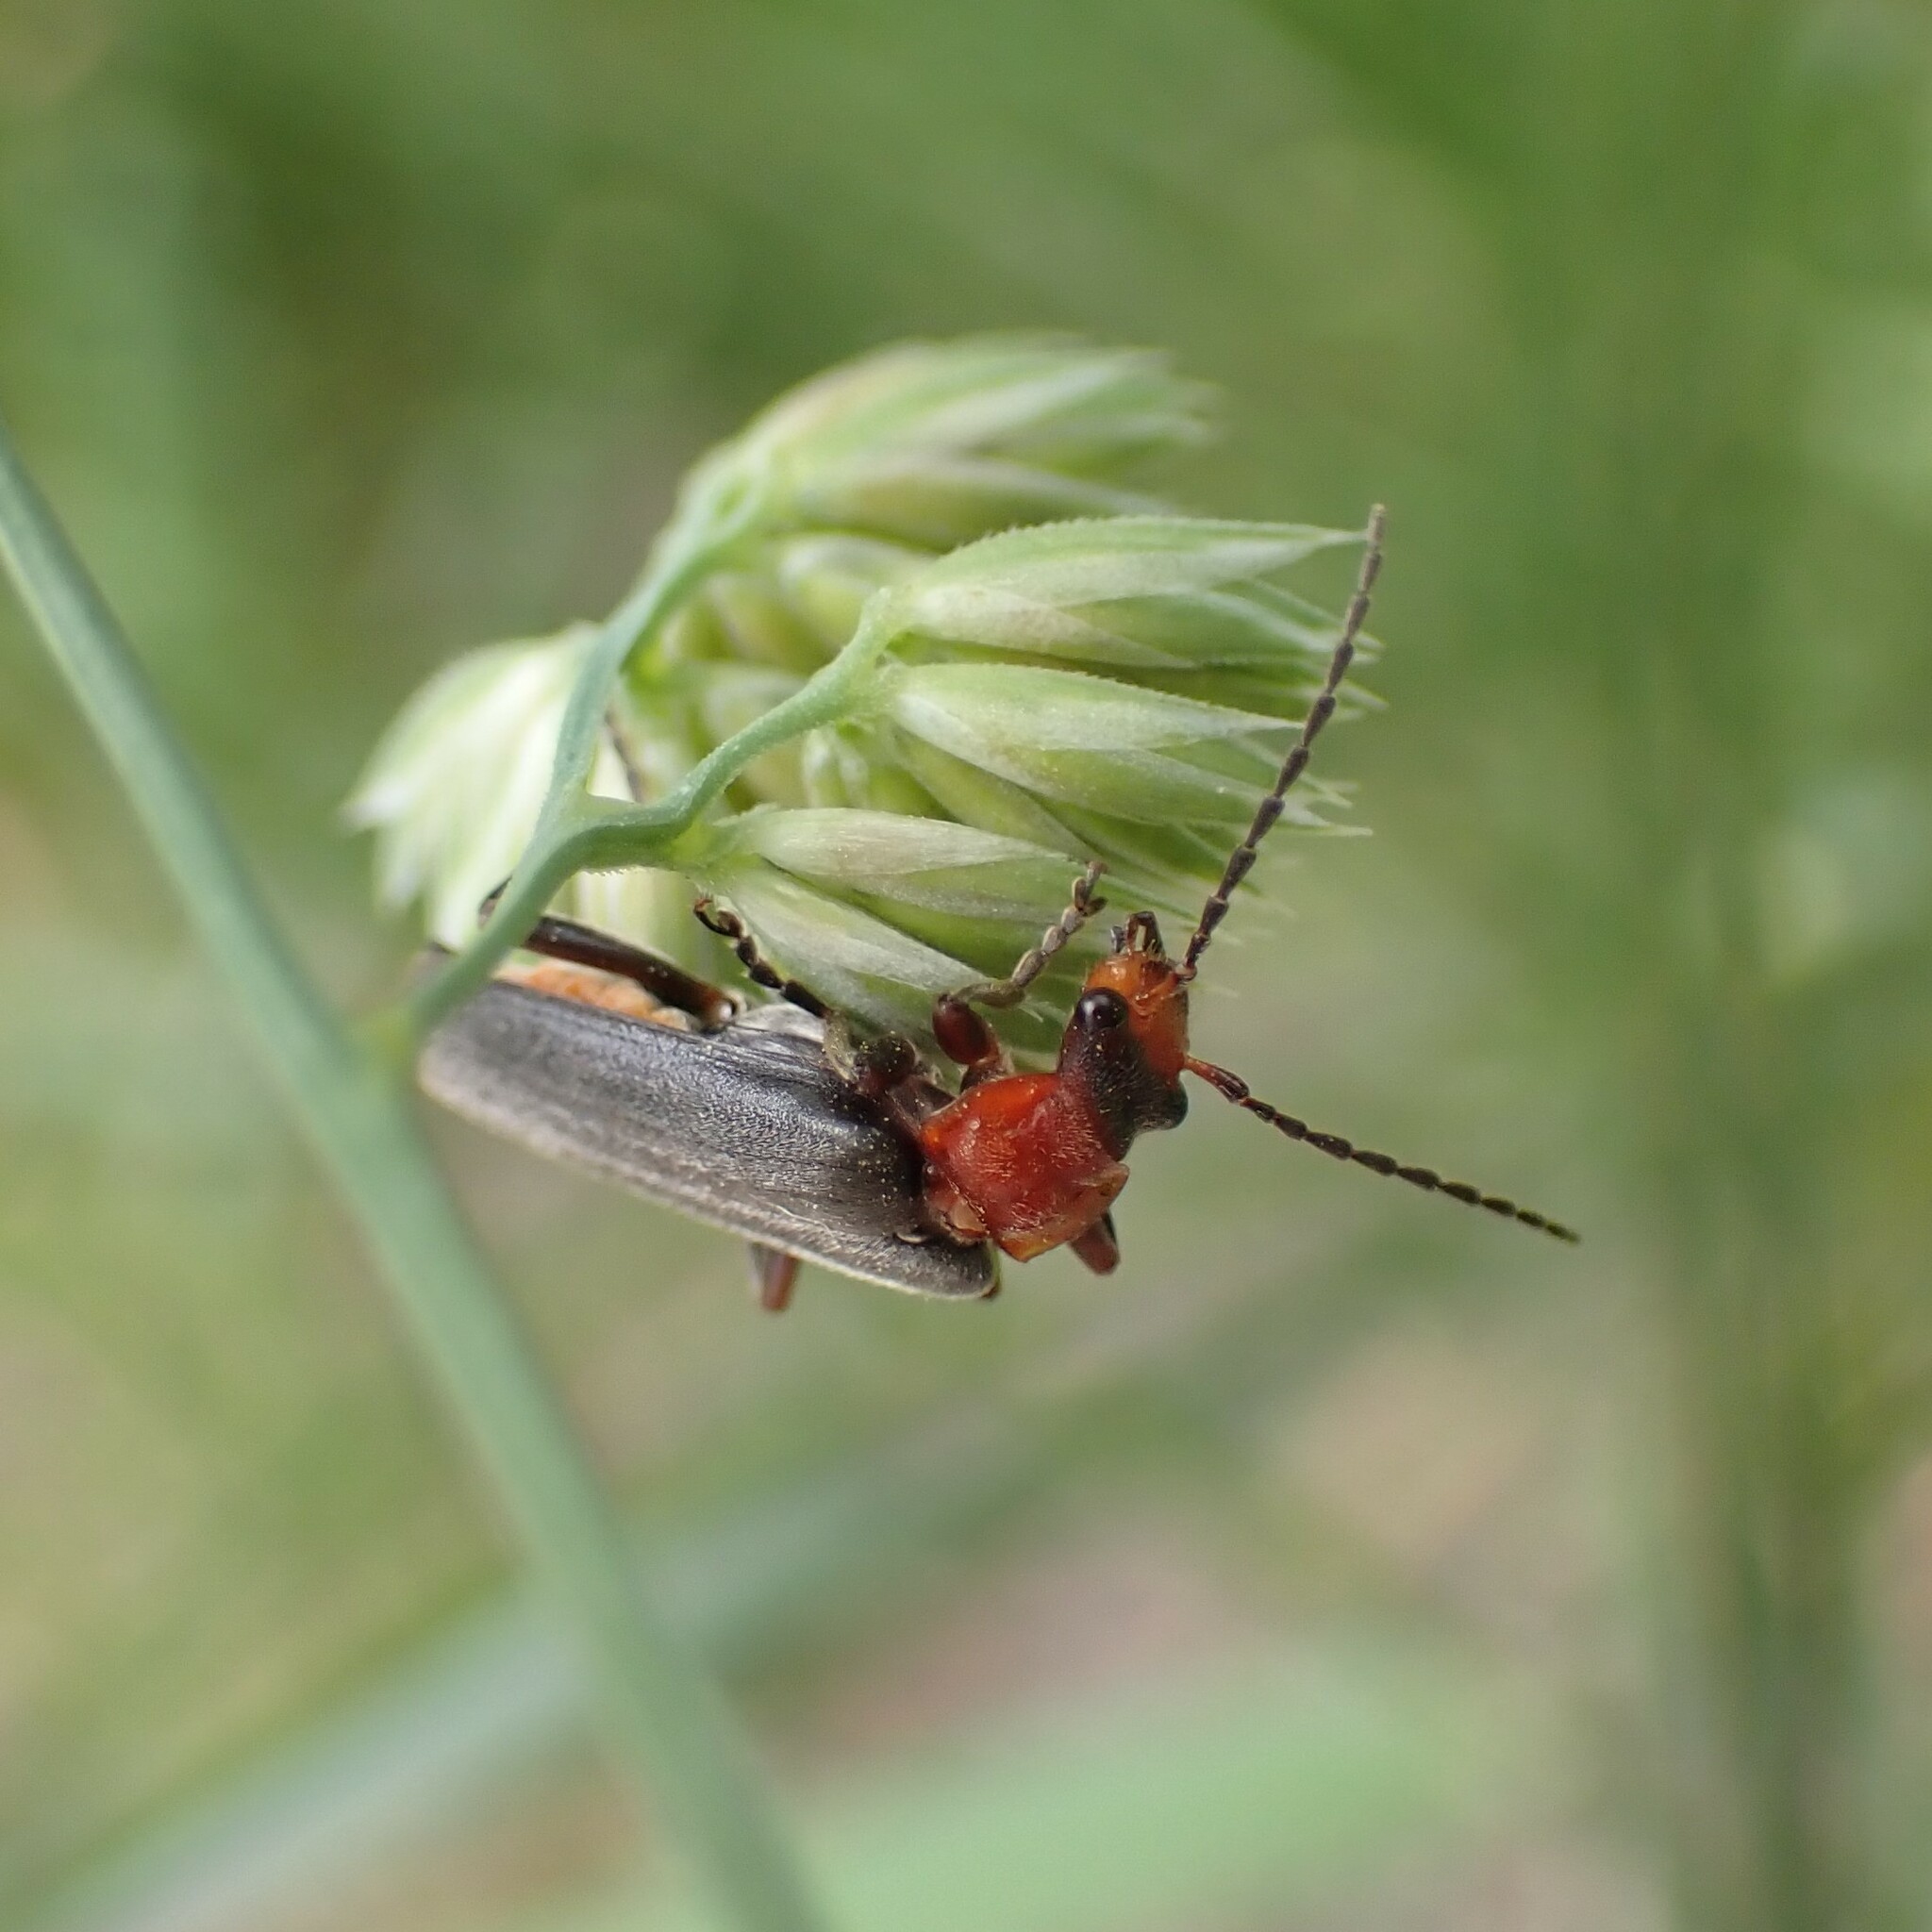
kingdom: Animalia
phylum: Arthropoda
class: Insecta
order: Coleoptera
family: Cantharidae
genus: Podabrus
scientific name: Podabrus pruinosus
